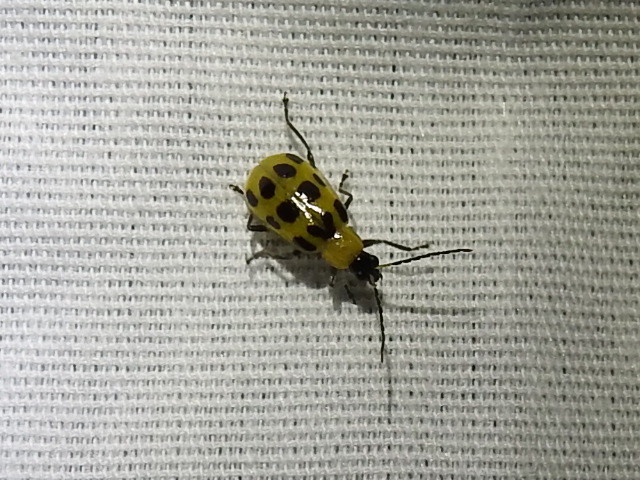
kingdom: Animalia
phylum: Arthropoda
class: Insecta
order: Coleoptera
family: Chrysomelidae
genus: Diabrotica
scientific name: Diabrotica undecimpunctata
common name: Spotted cucumber beetle
